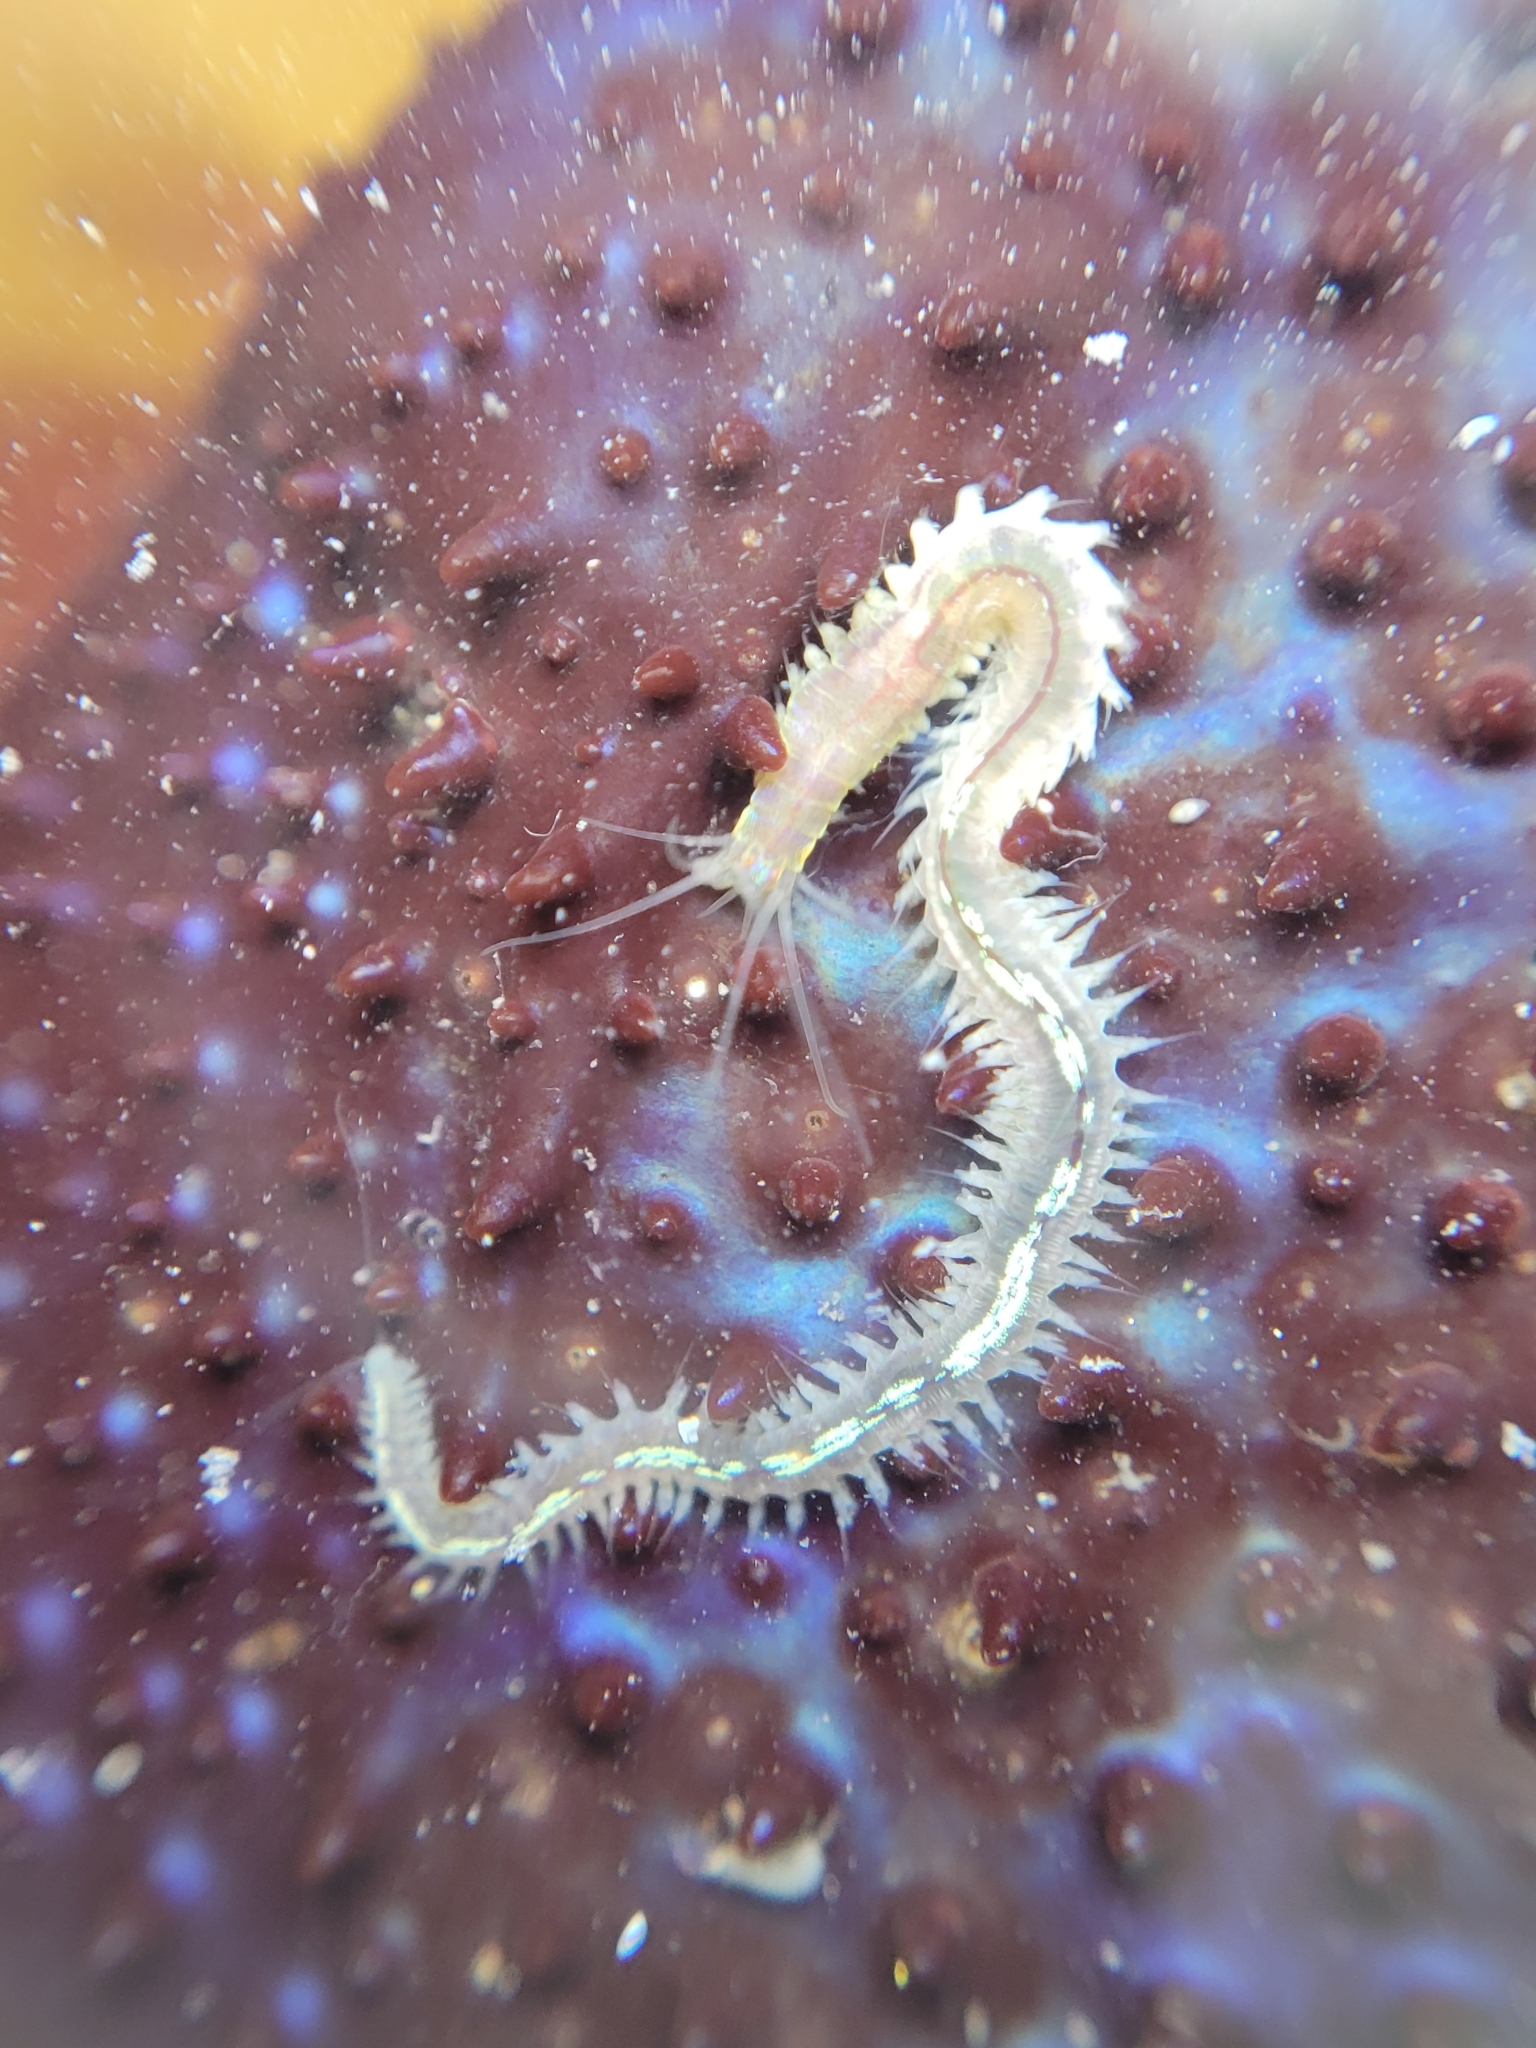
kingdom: Animalia
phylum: Annelida
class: Polychaeta
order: Phyllodocida
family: Nereididae
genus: Platynereis
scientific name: Platynereis bicanaliculata
